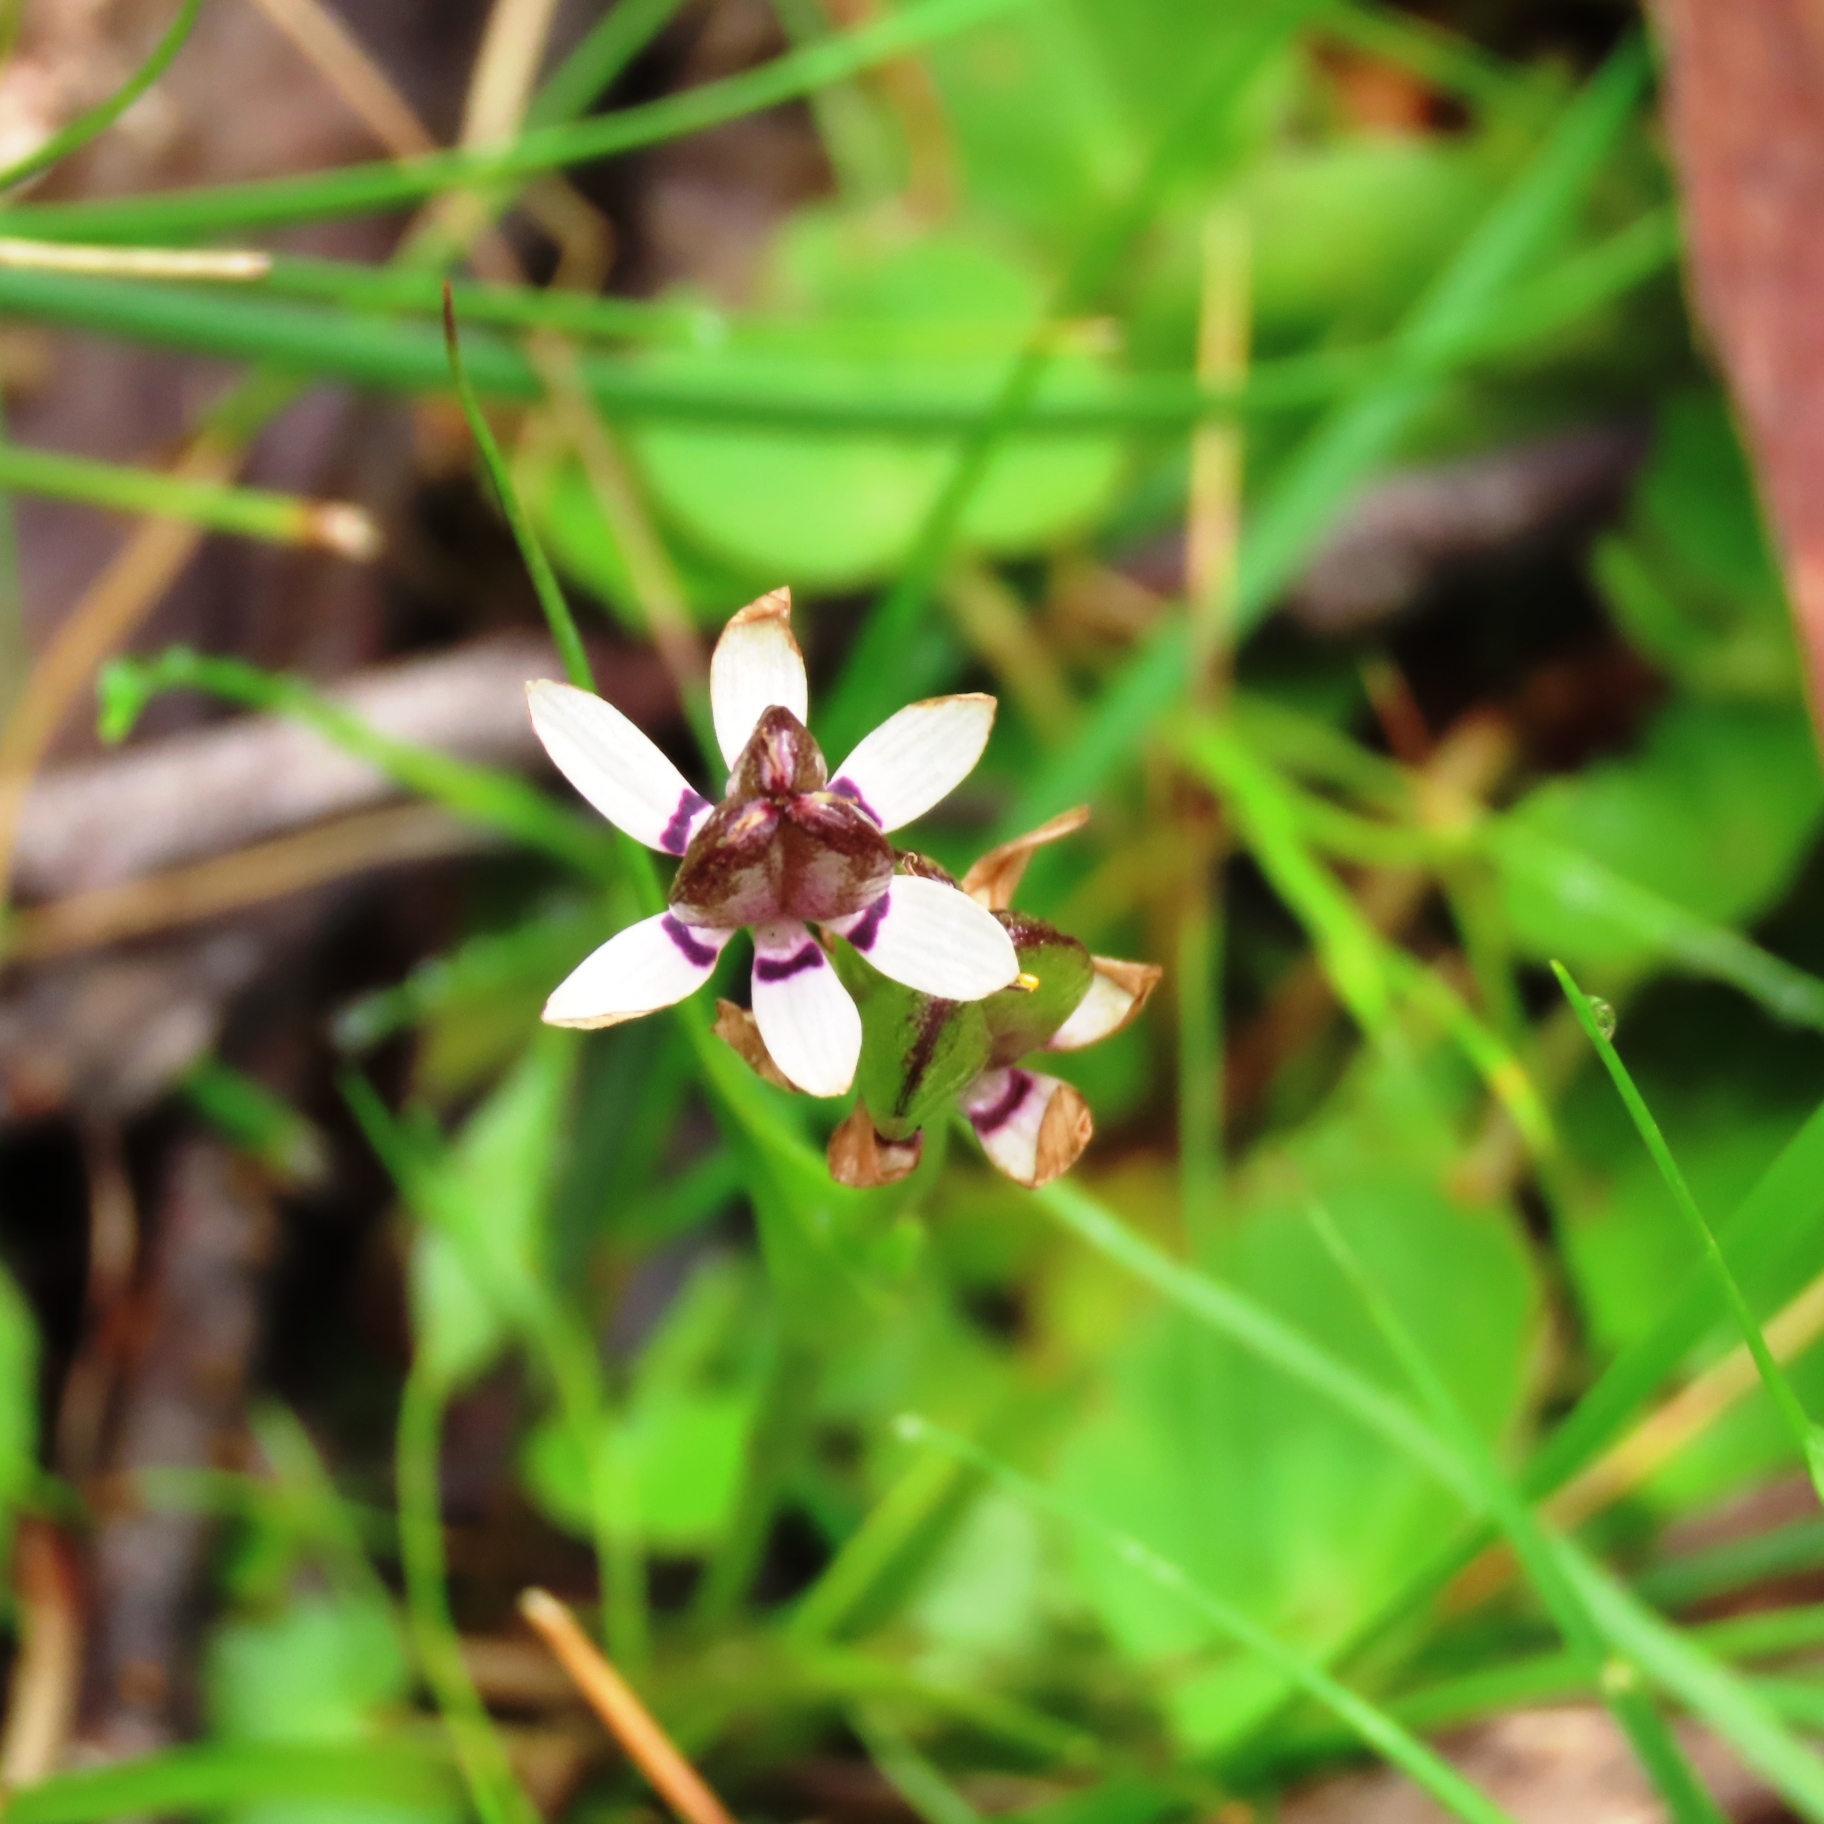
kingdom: Plantae
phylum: Tracheophyta
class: Liliopsida
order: Liliales
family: Colchicaceae
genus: Wurmbea
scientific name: Wurmbea dioica
